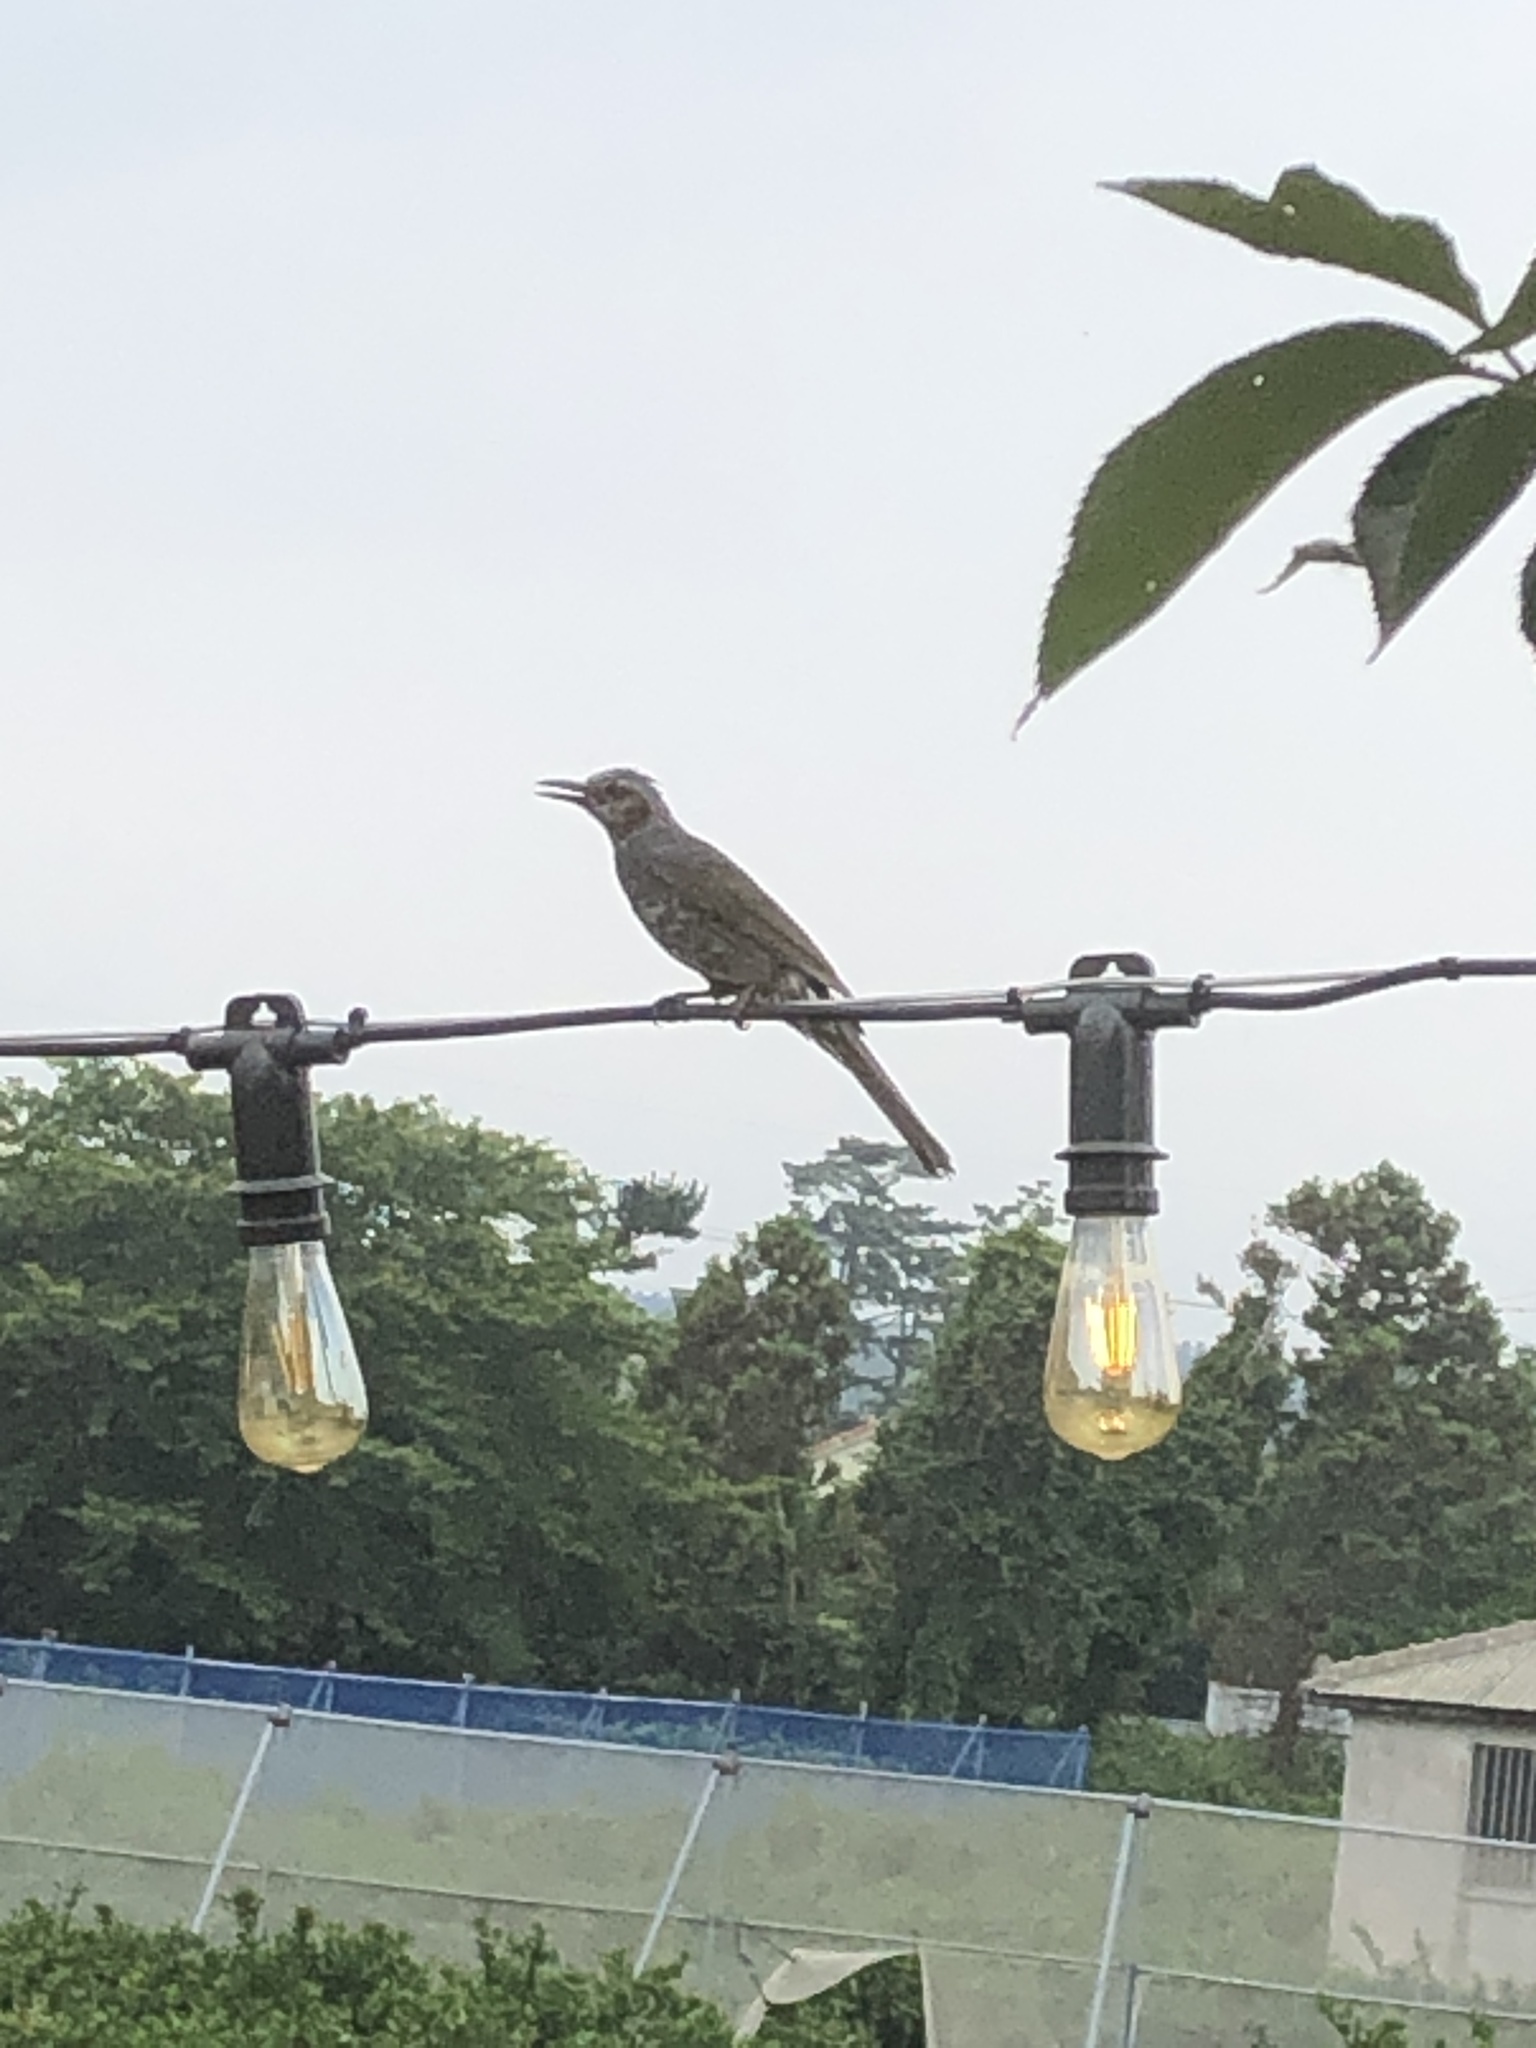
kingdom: Animalia
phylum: Chordata
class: Aves
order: Passeriformes
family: Pycnonotidae
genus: Hypsipetes
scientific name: Hypsipetes amaurotis
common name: Brown-eared bulbul
